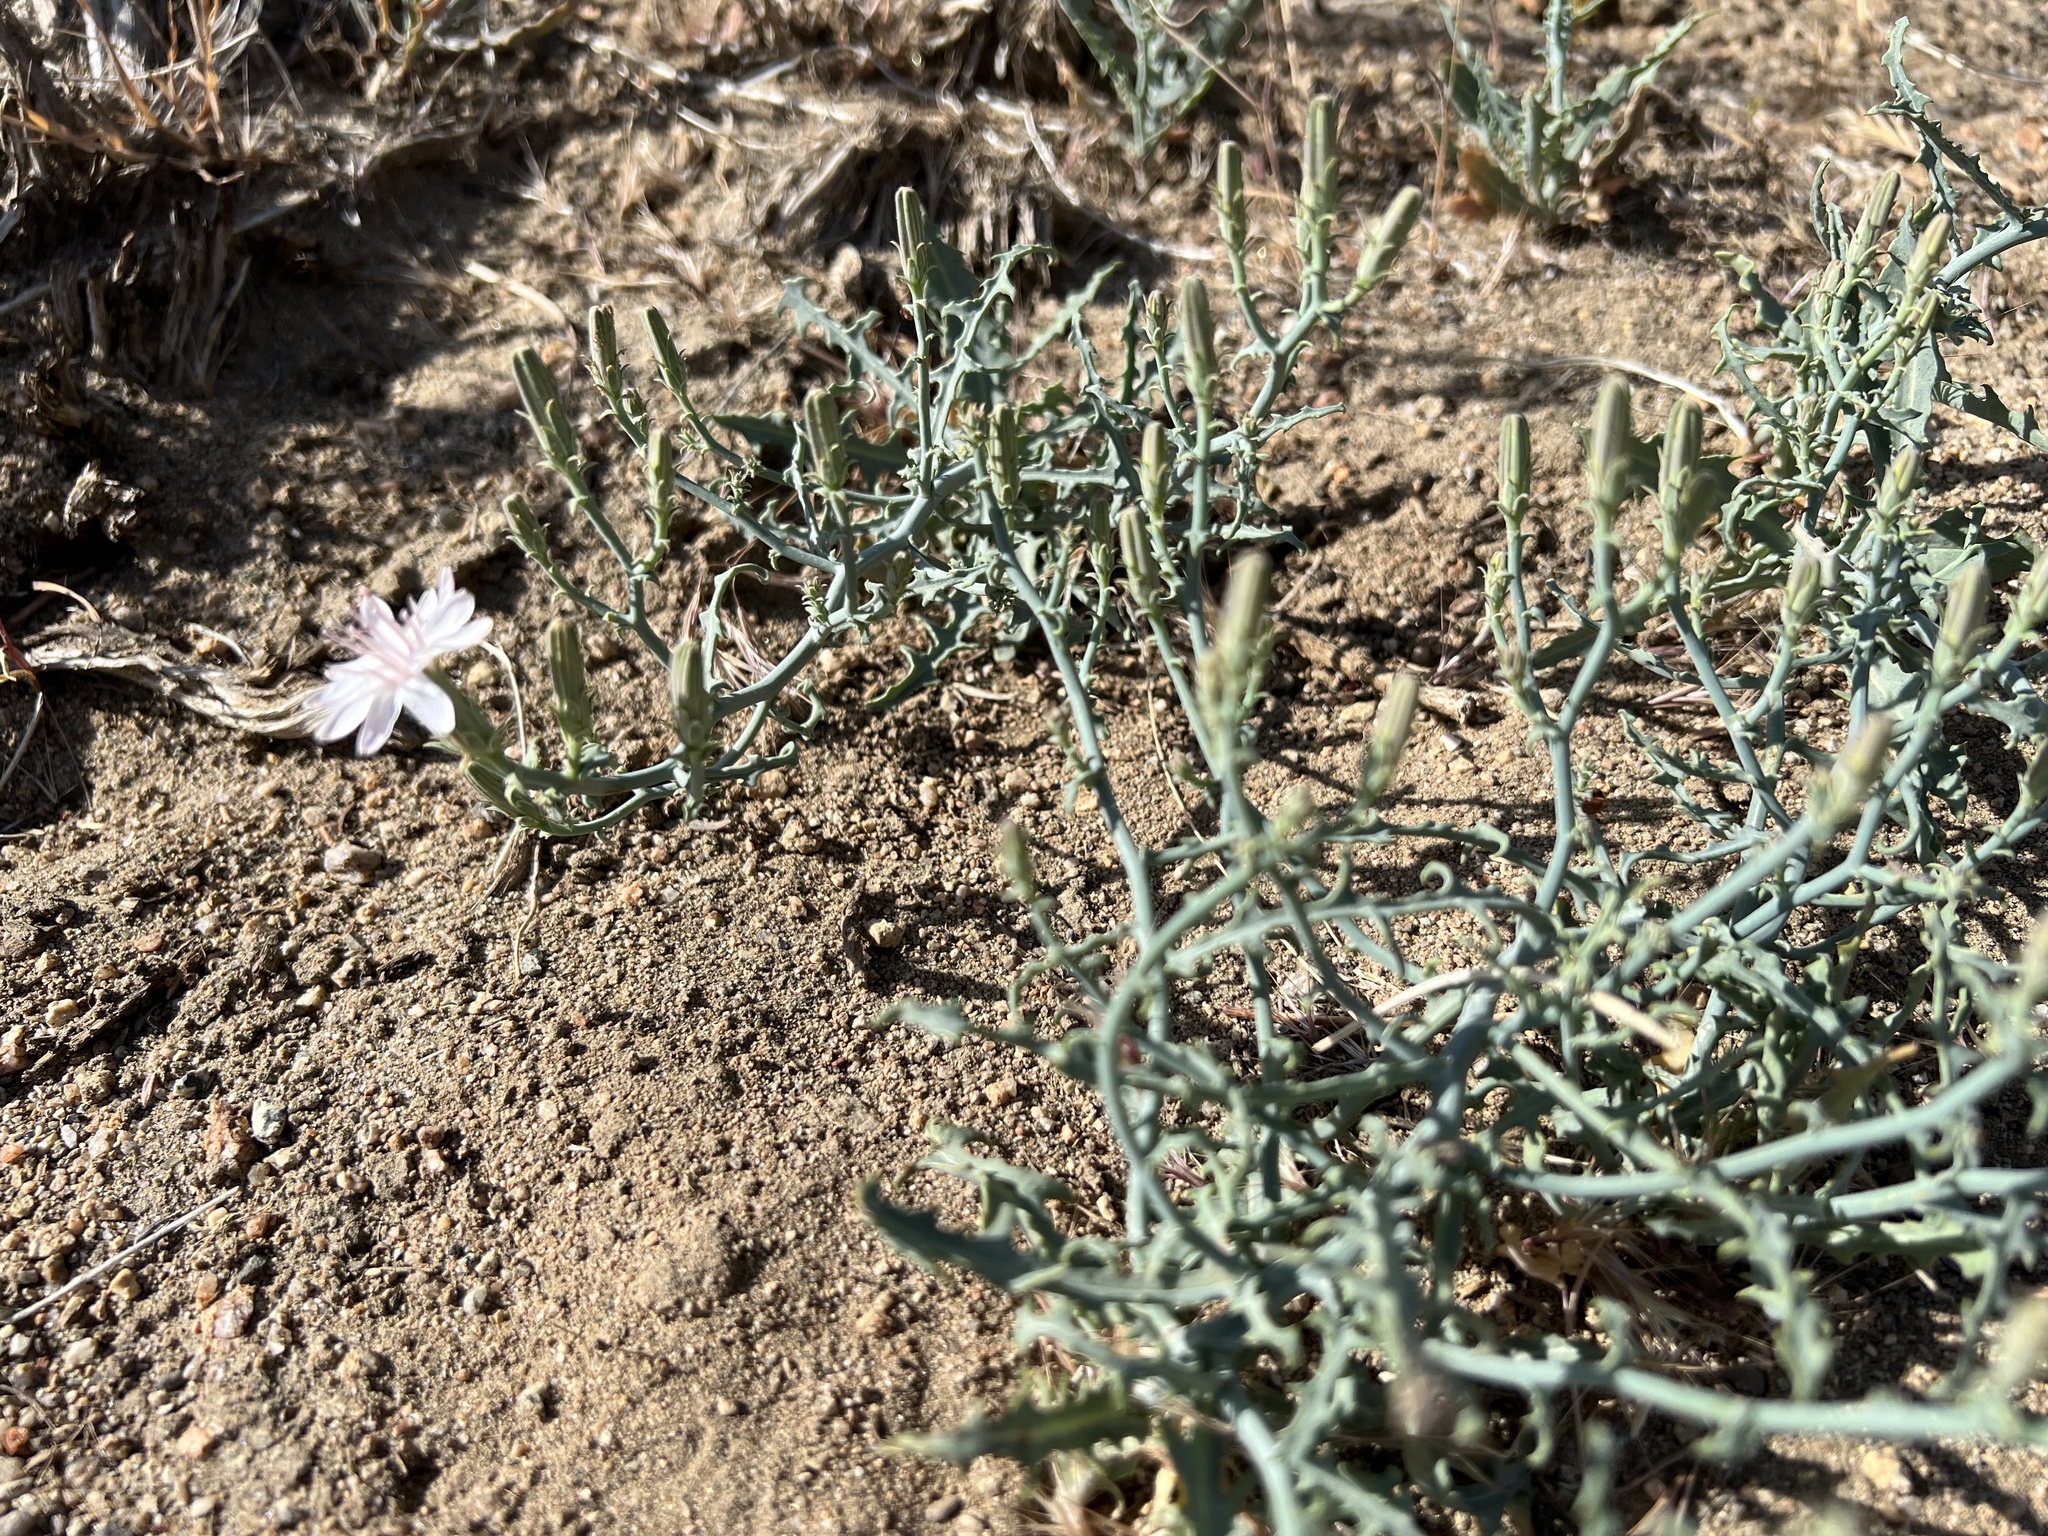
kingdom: Plantae
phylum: Tracheophyta
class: Magnoliopsida
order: Asterales
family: Asteraceae
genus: Stephanomeria
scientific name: Stephanomeria parryi
